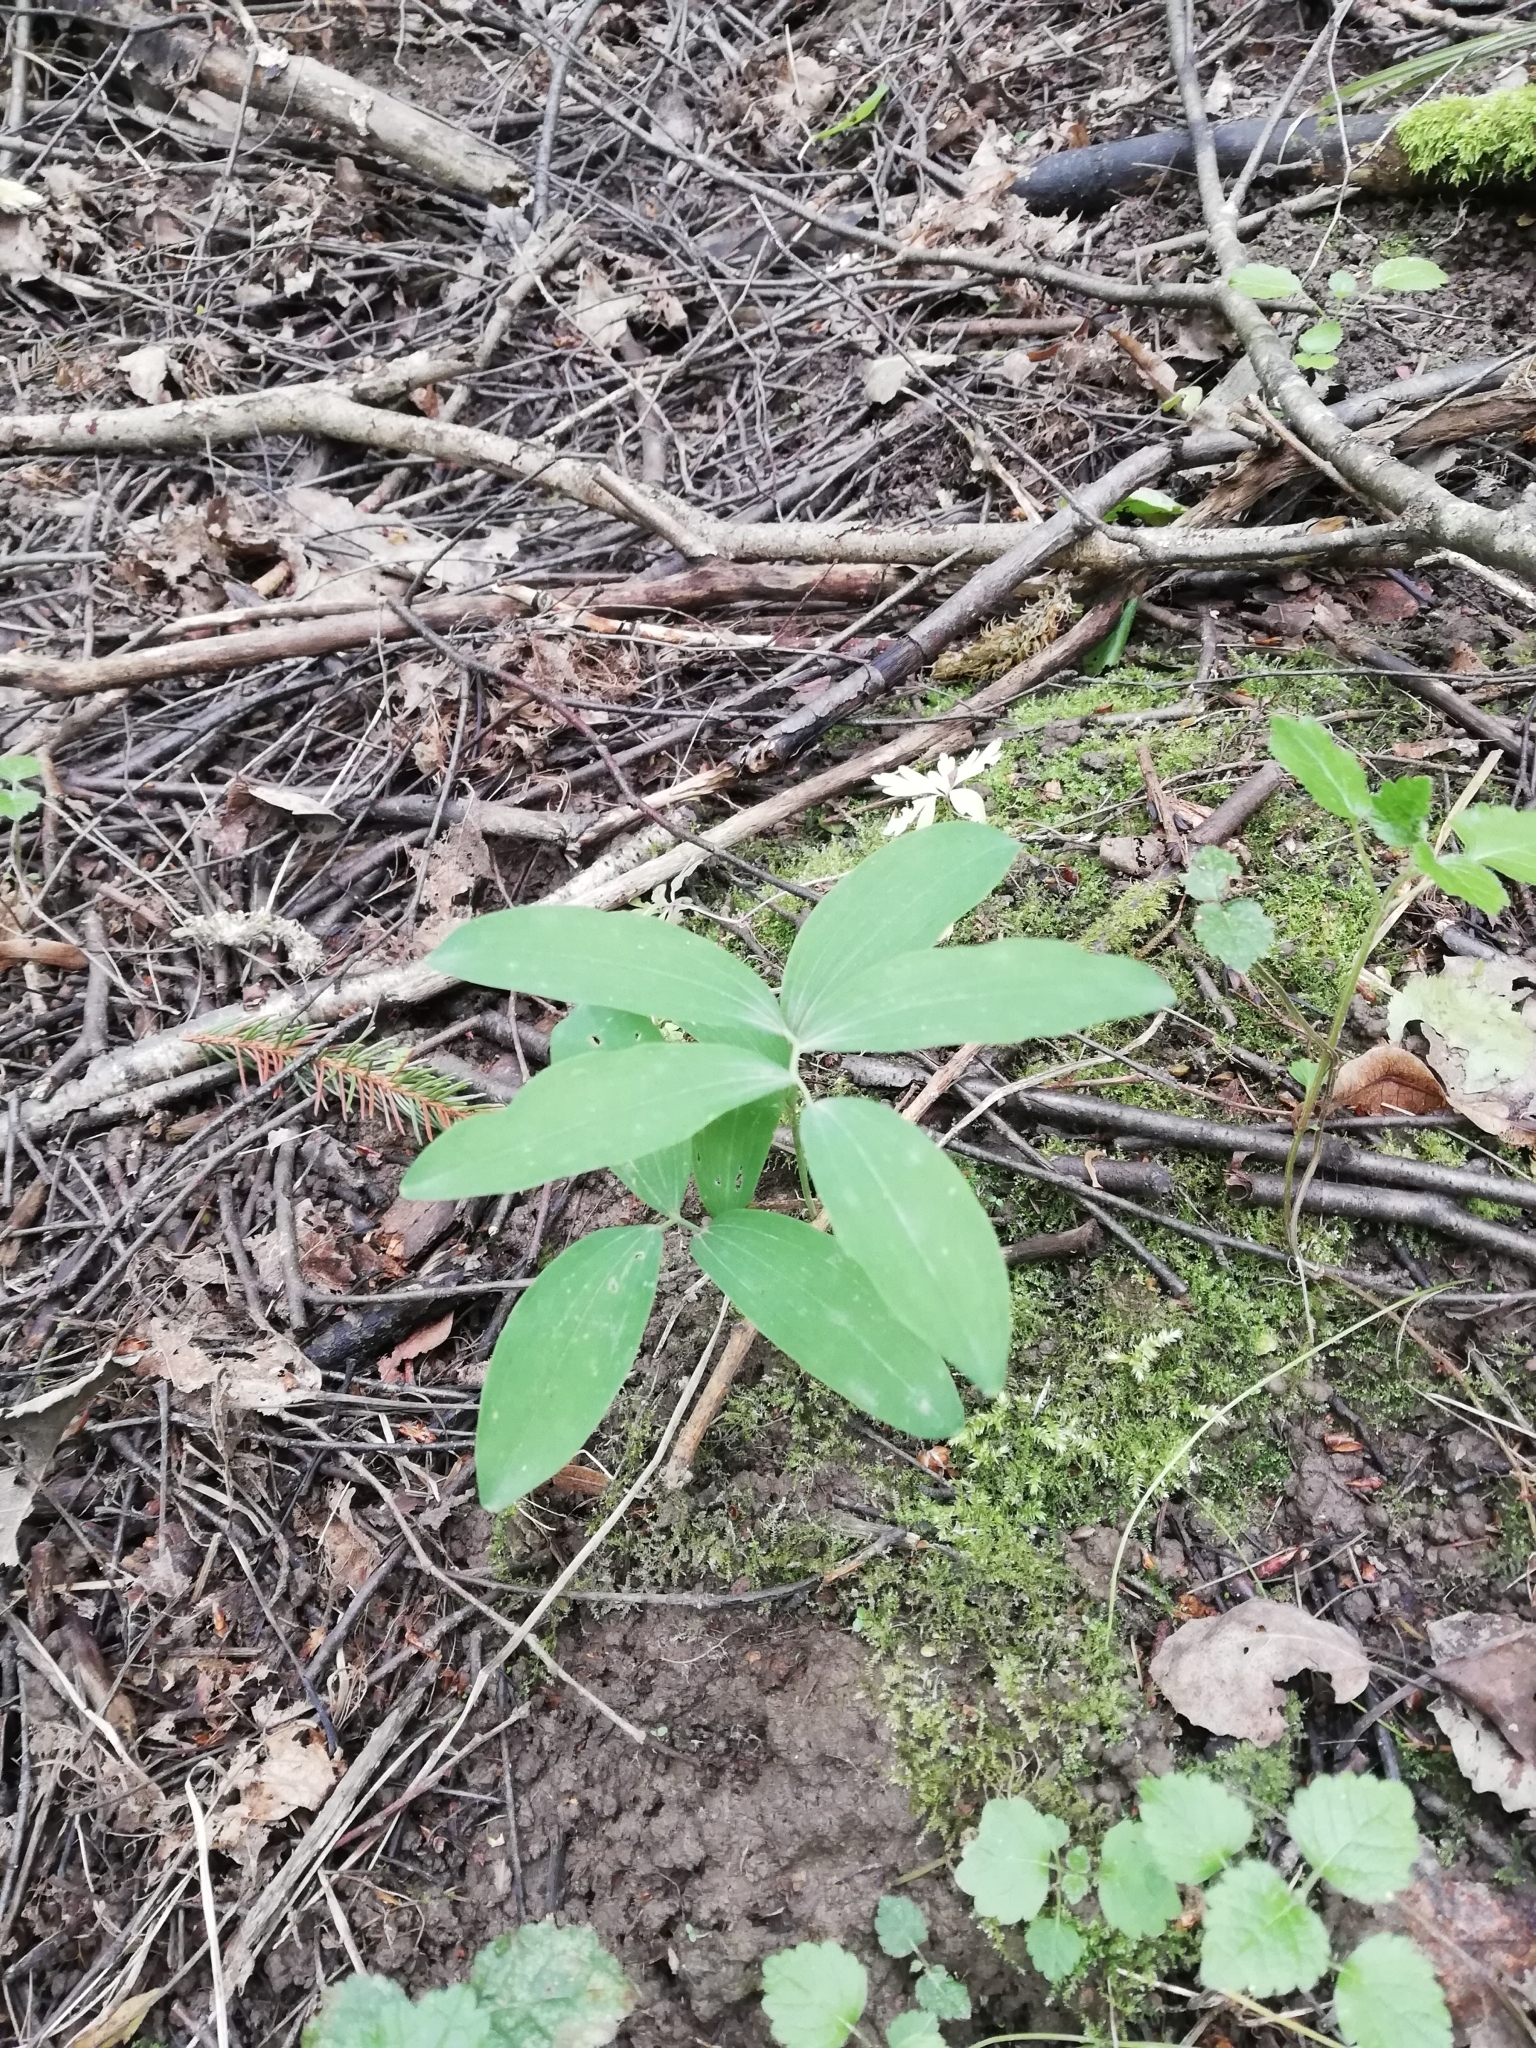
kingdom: Plantae
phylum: Tracheophyta
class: Liliopsida
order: Asparagales
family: Asparagaceae
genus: Polygonatum
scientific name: Polygonatum odoratum
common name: Angular solomon's-seal
